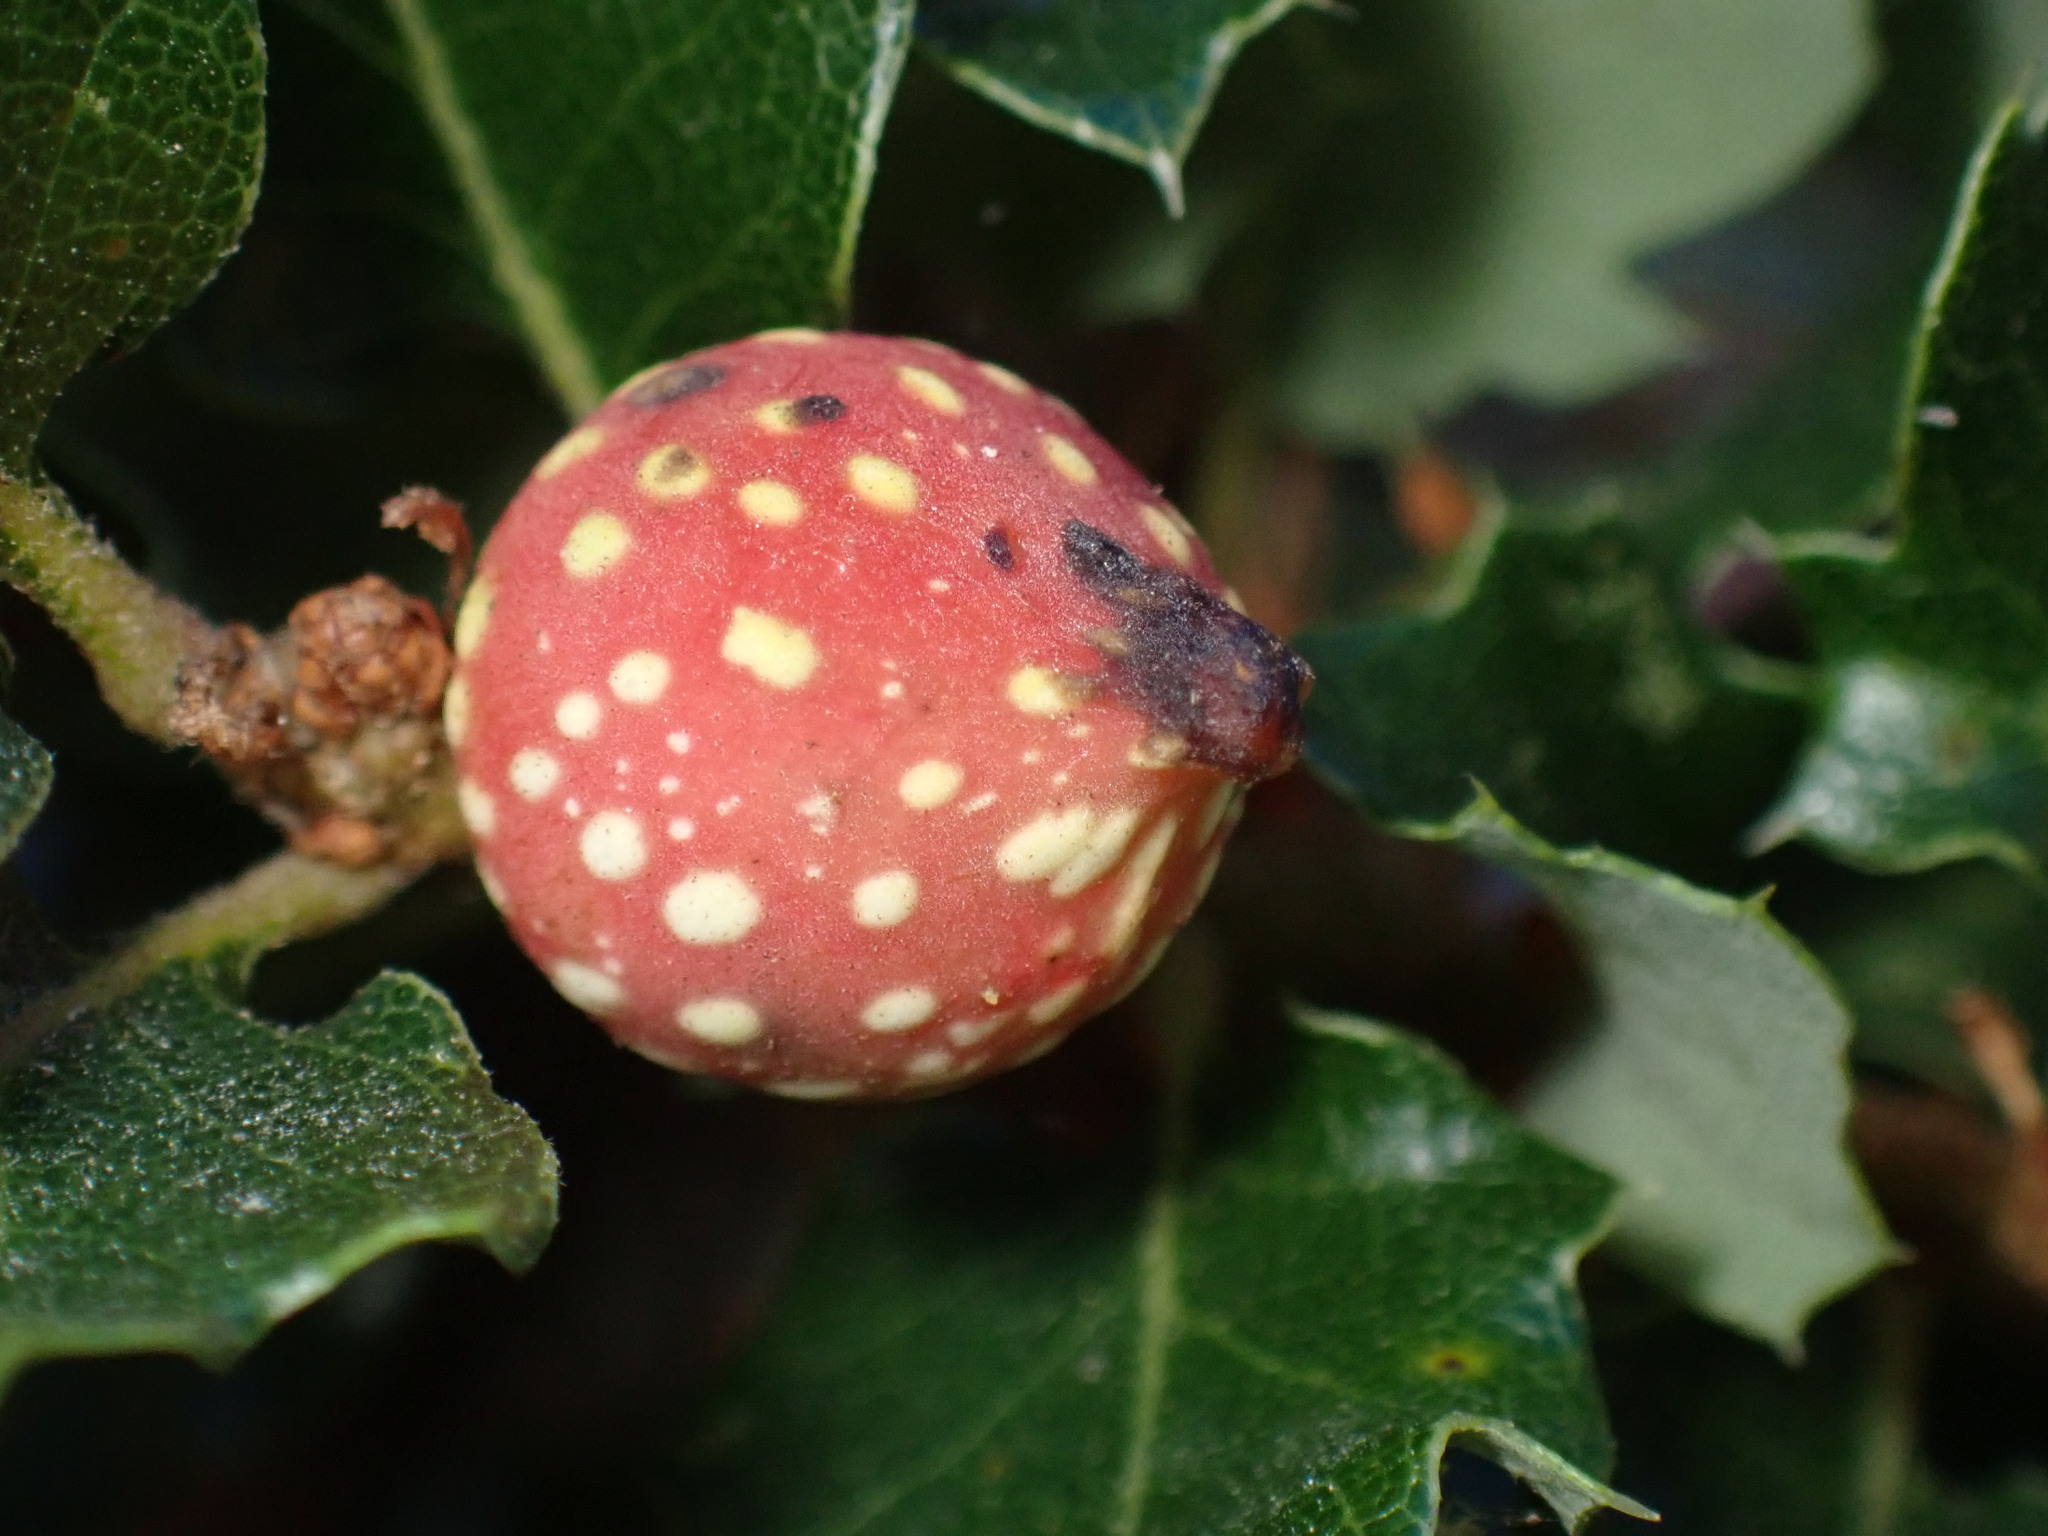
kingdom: Animalia
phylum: Arthropoda
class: Insecta
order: Hymenoptera
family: Cynipidae
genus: Burnettweldia
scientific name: Burnettweldia
